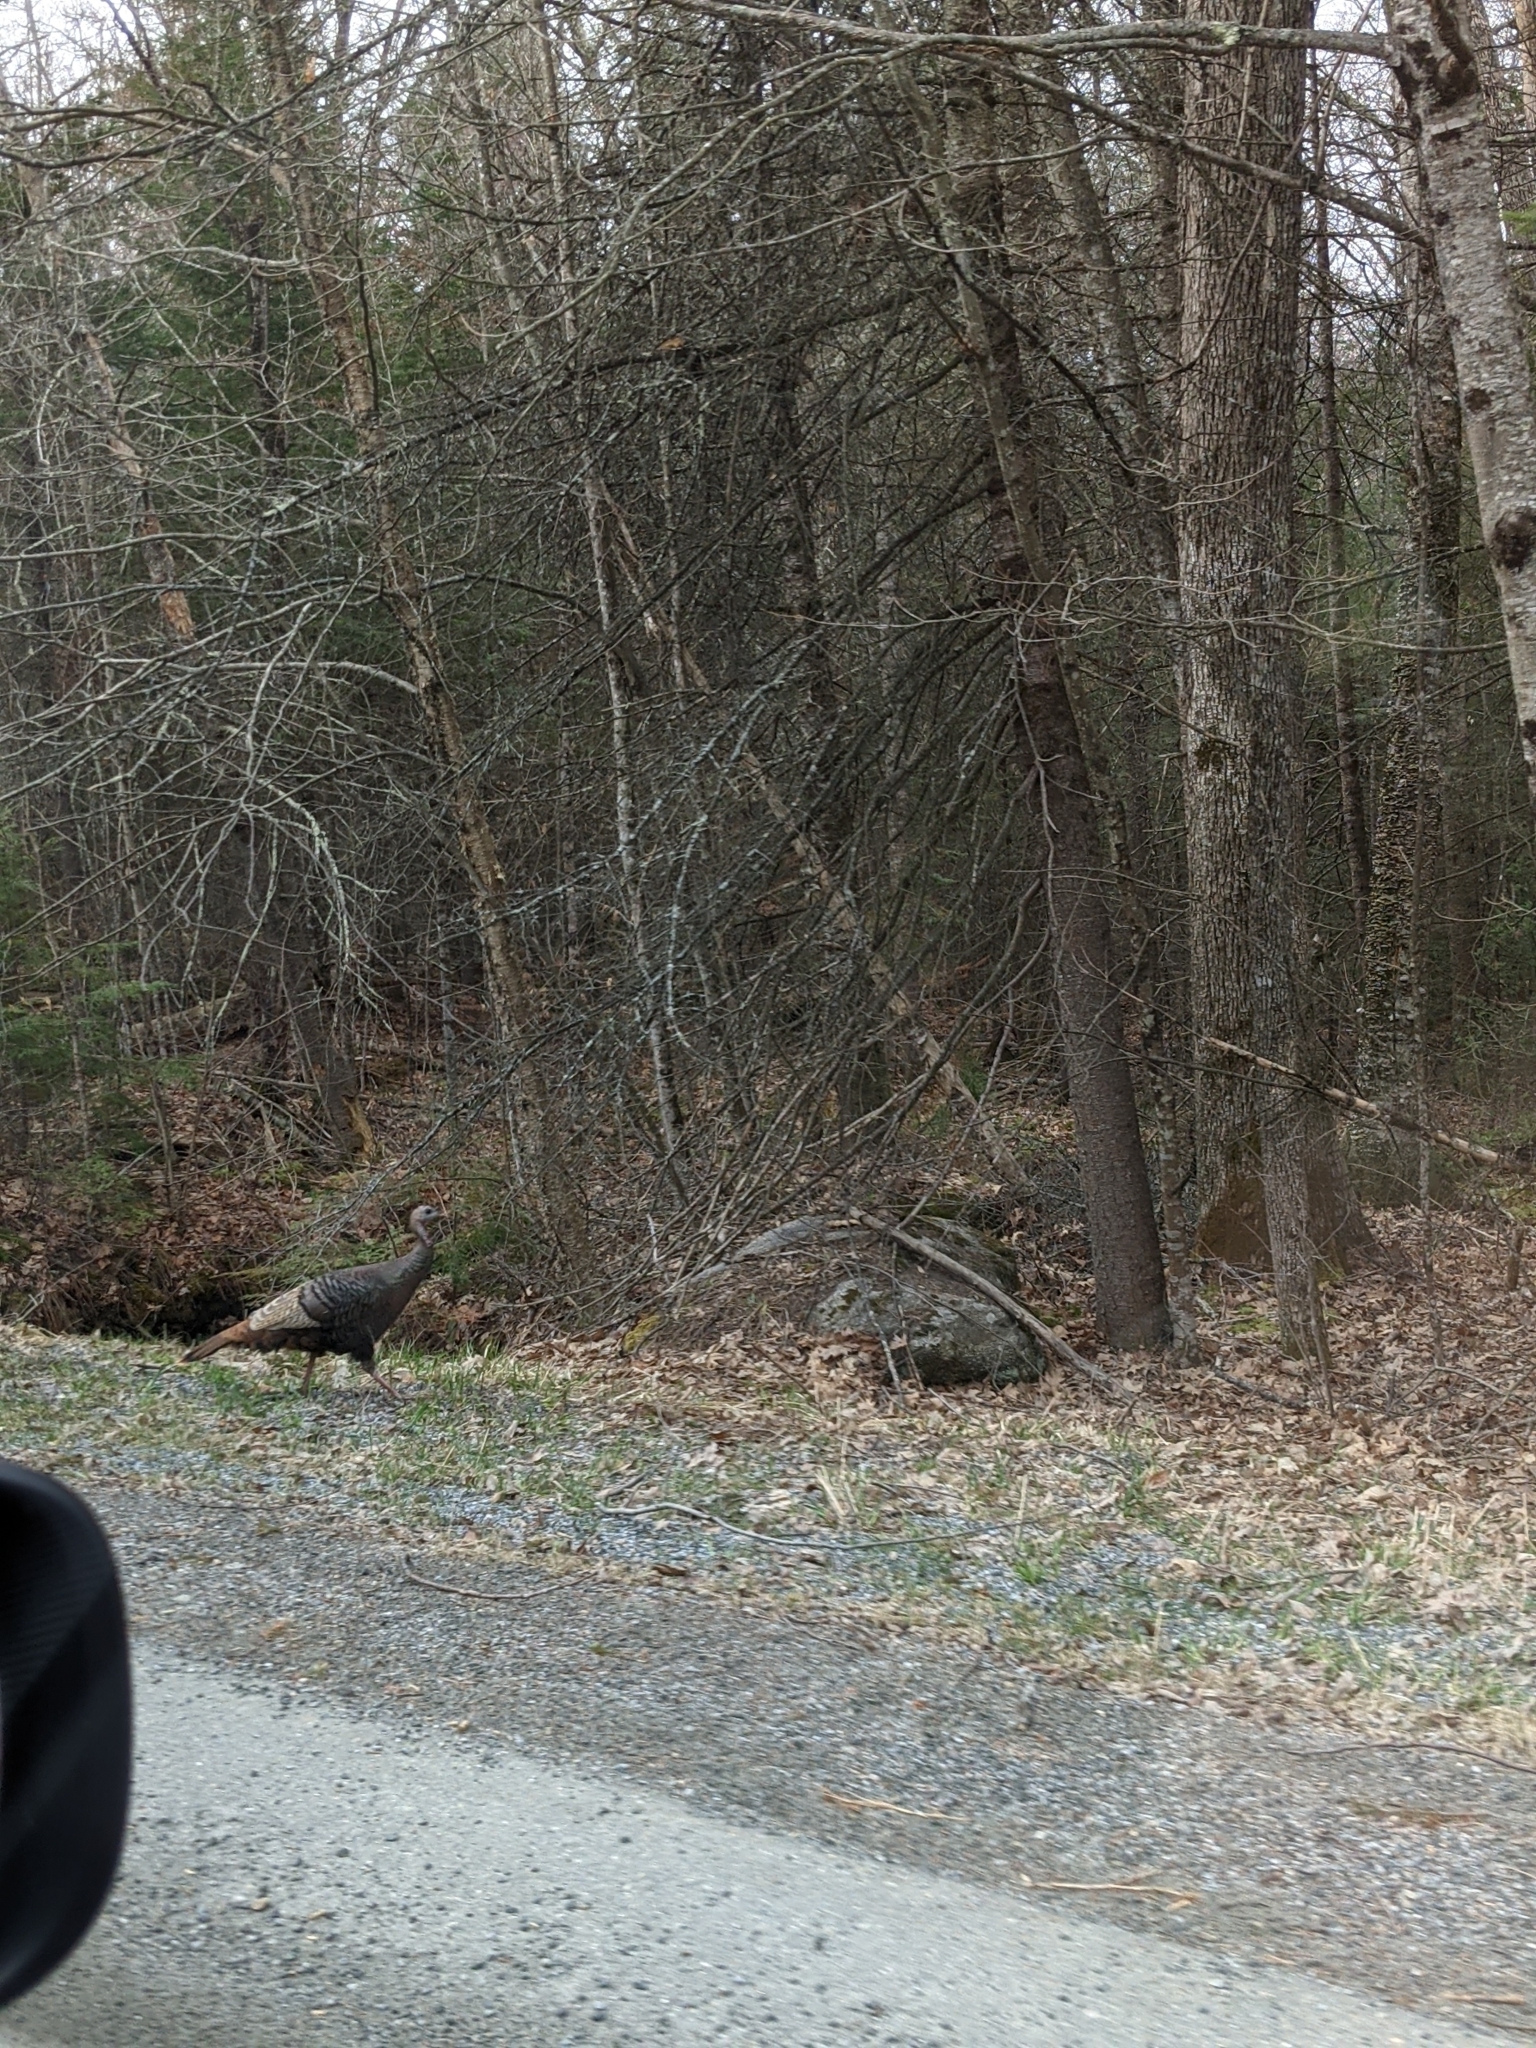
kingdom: Animalia
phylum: Chordata
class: Aves
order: Galliformes
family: Phasianidae
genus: Meleagris
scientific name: Meleagris gallopavo
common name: Wild turkey
